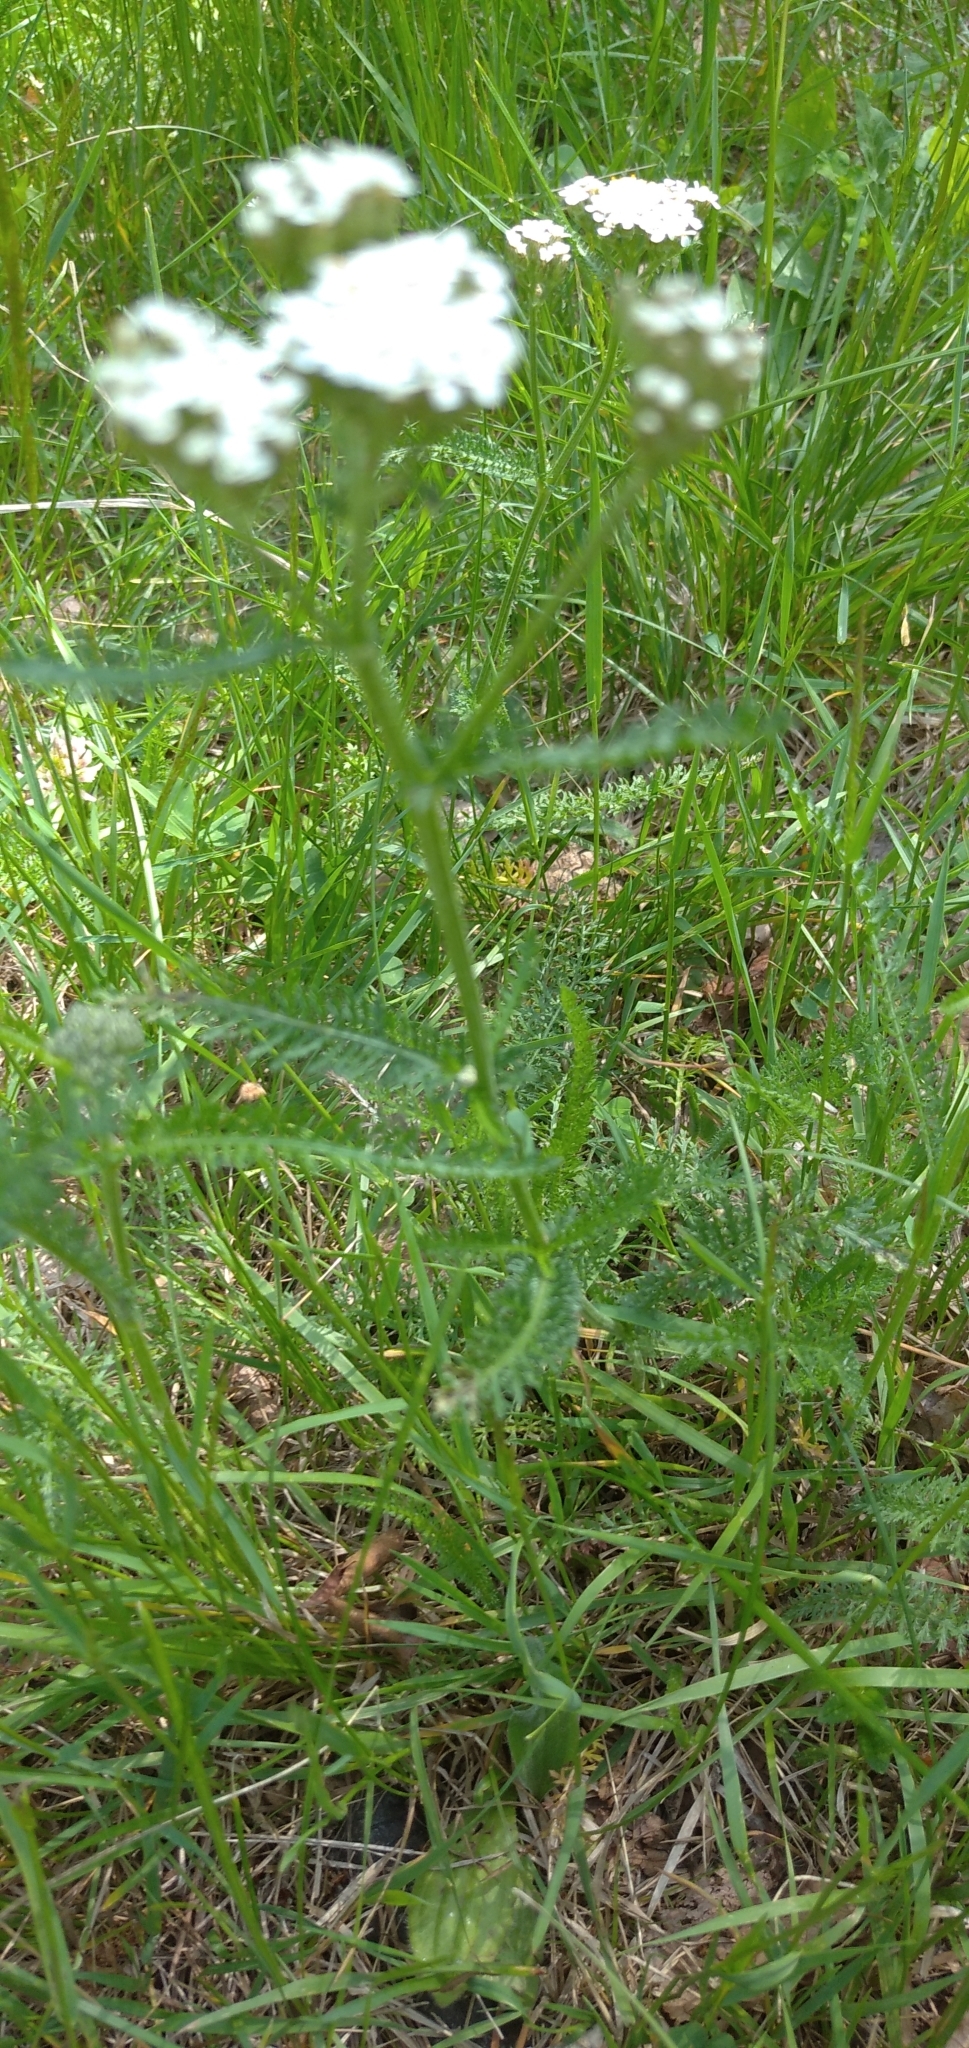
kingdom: Plantae
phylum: Tracheophyta
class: Magnoliopsida
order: Asterales
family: Asteraceae
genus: Achillea
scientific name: Achillea millefolium
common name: Yarrow
